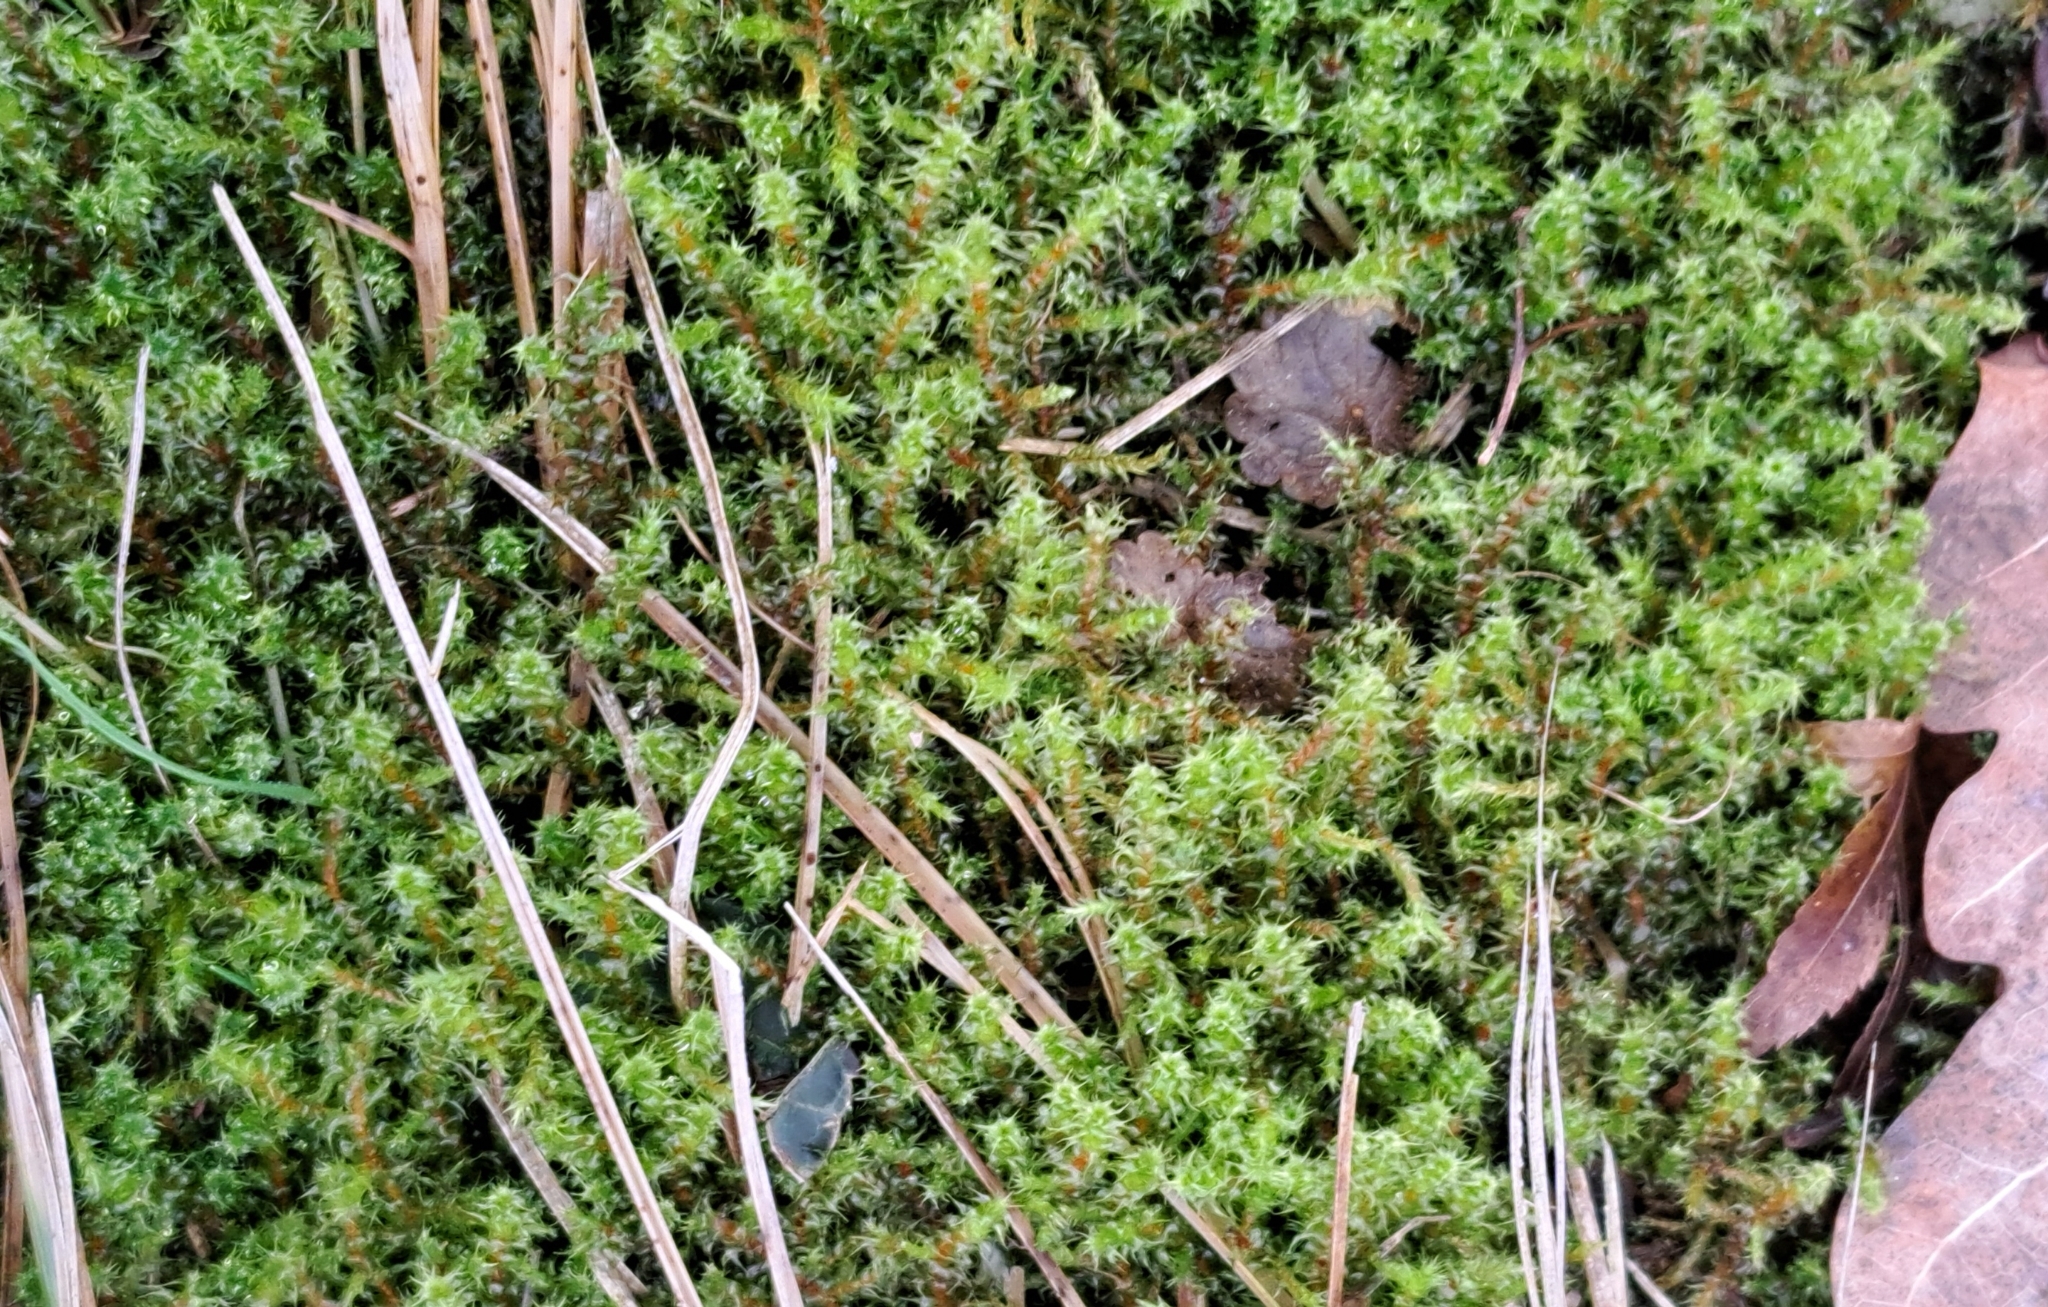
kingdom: Plantae
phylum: Bryophyta
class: Bryopsida
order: Hypnales
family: Hylocomiaceae
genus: Rhytidiadelphus
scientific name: Rhytidiadelphus squarrosus
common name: Springy turf-moss
